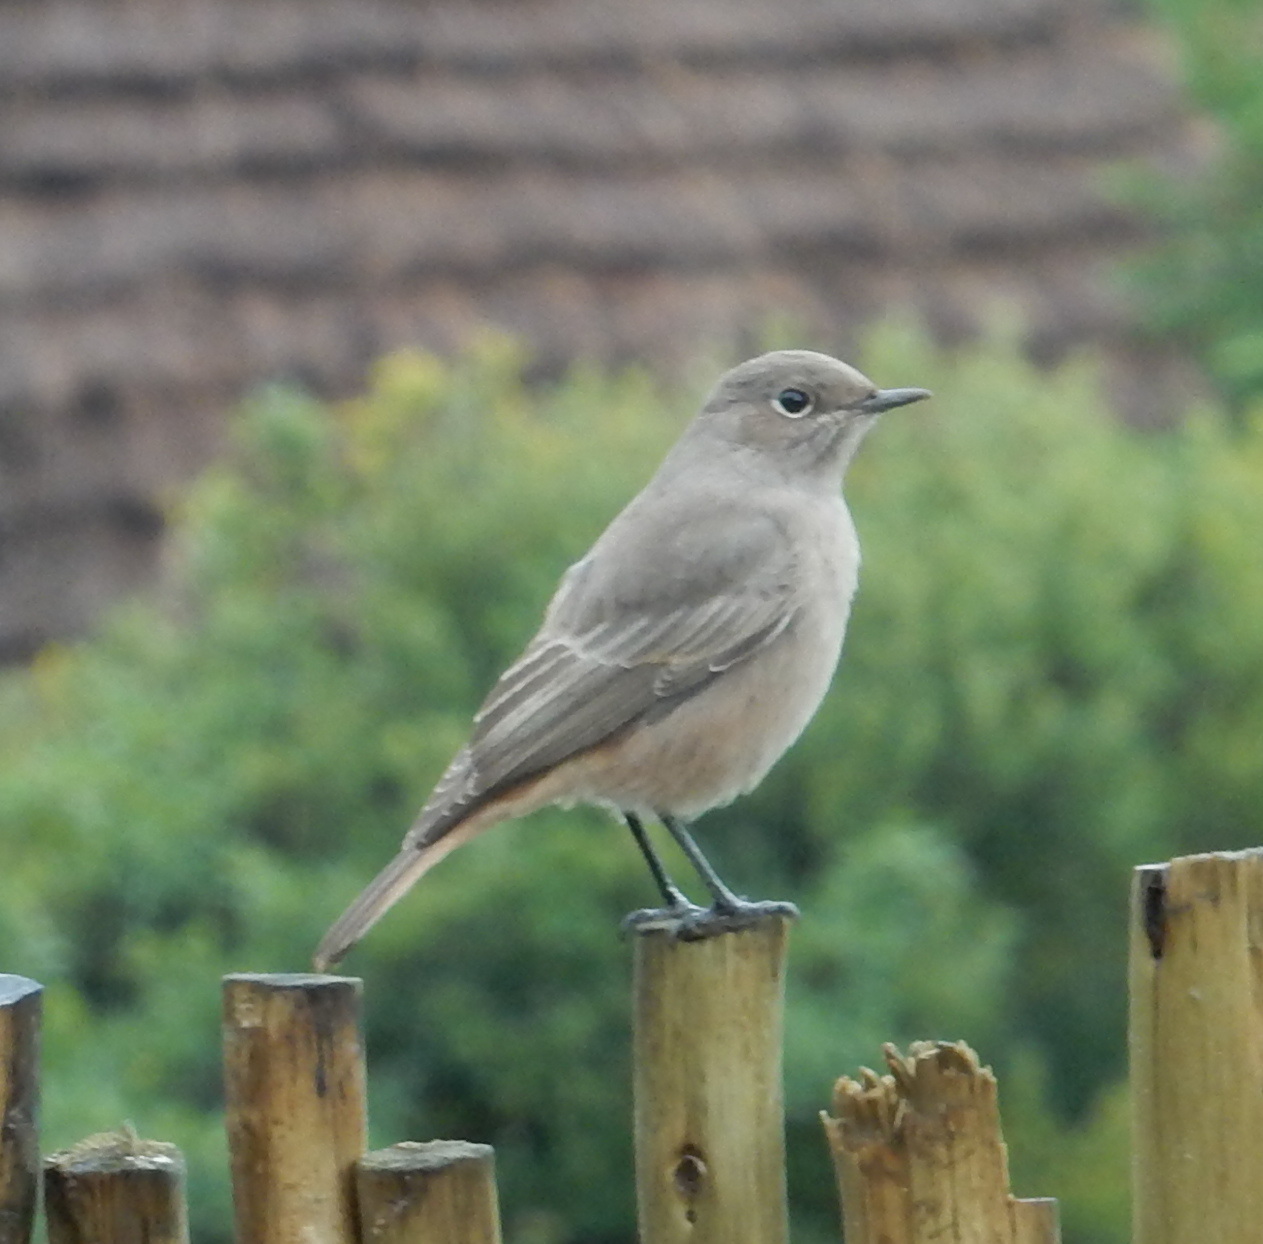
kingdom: Animalia
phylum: Chordata
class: Aves
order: Passeriformes
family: Muscicapidae
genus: Oenanthe
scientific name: Oenanthe familiaris
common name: Familiar chat
